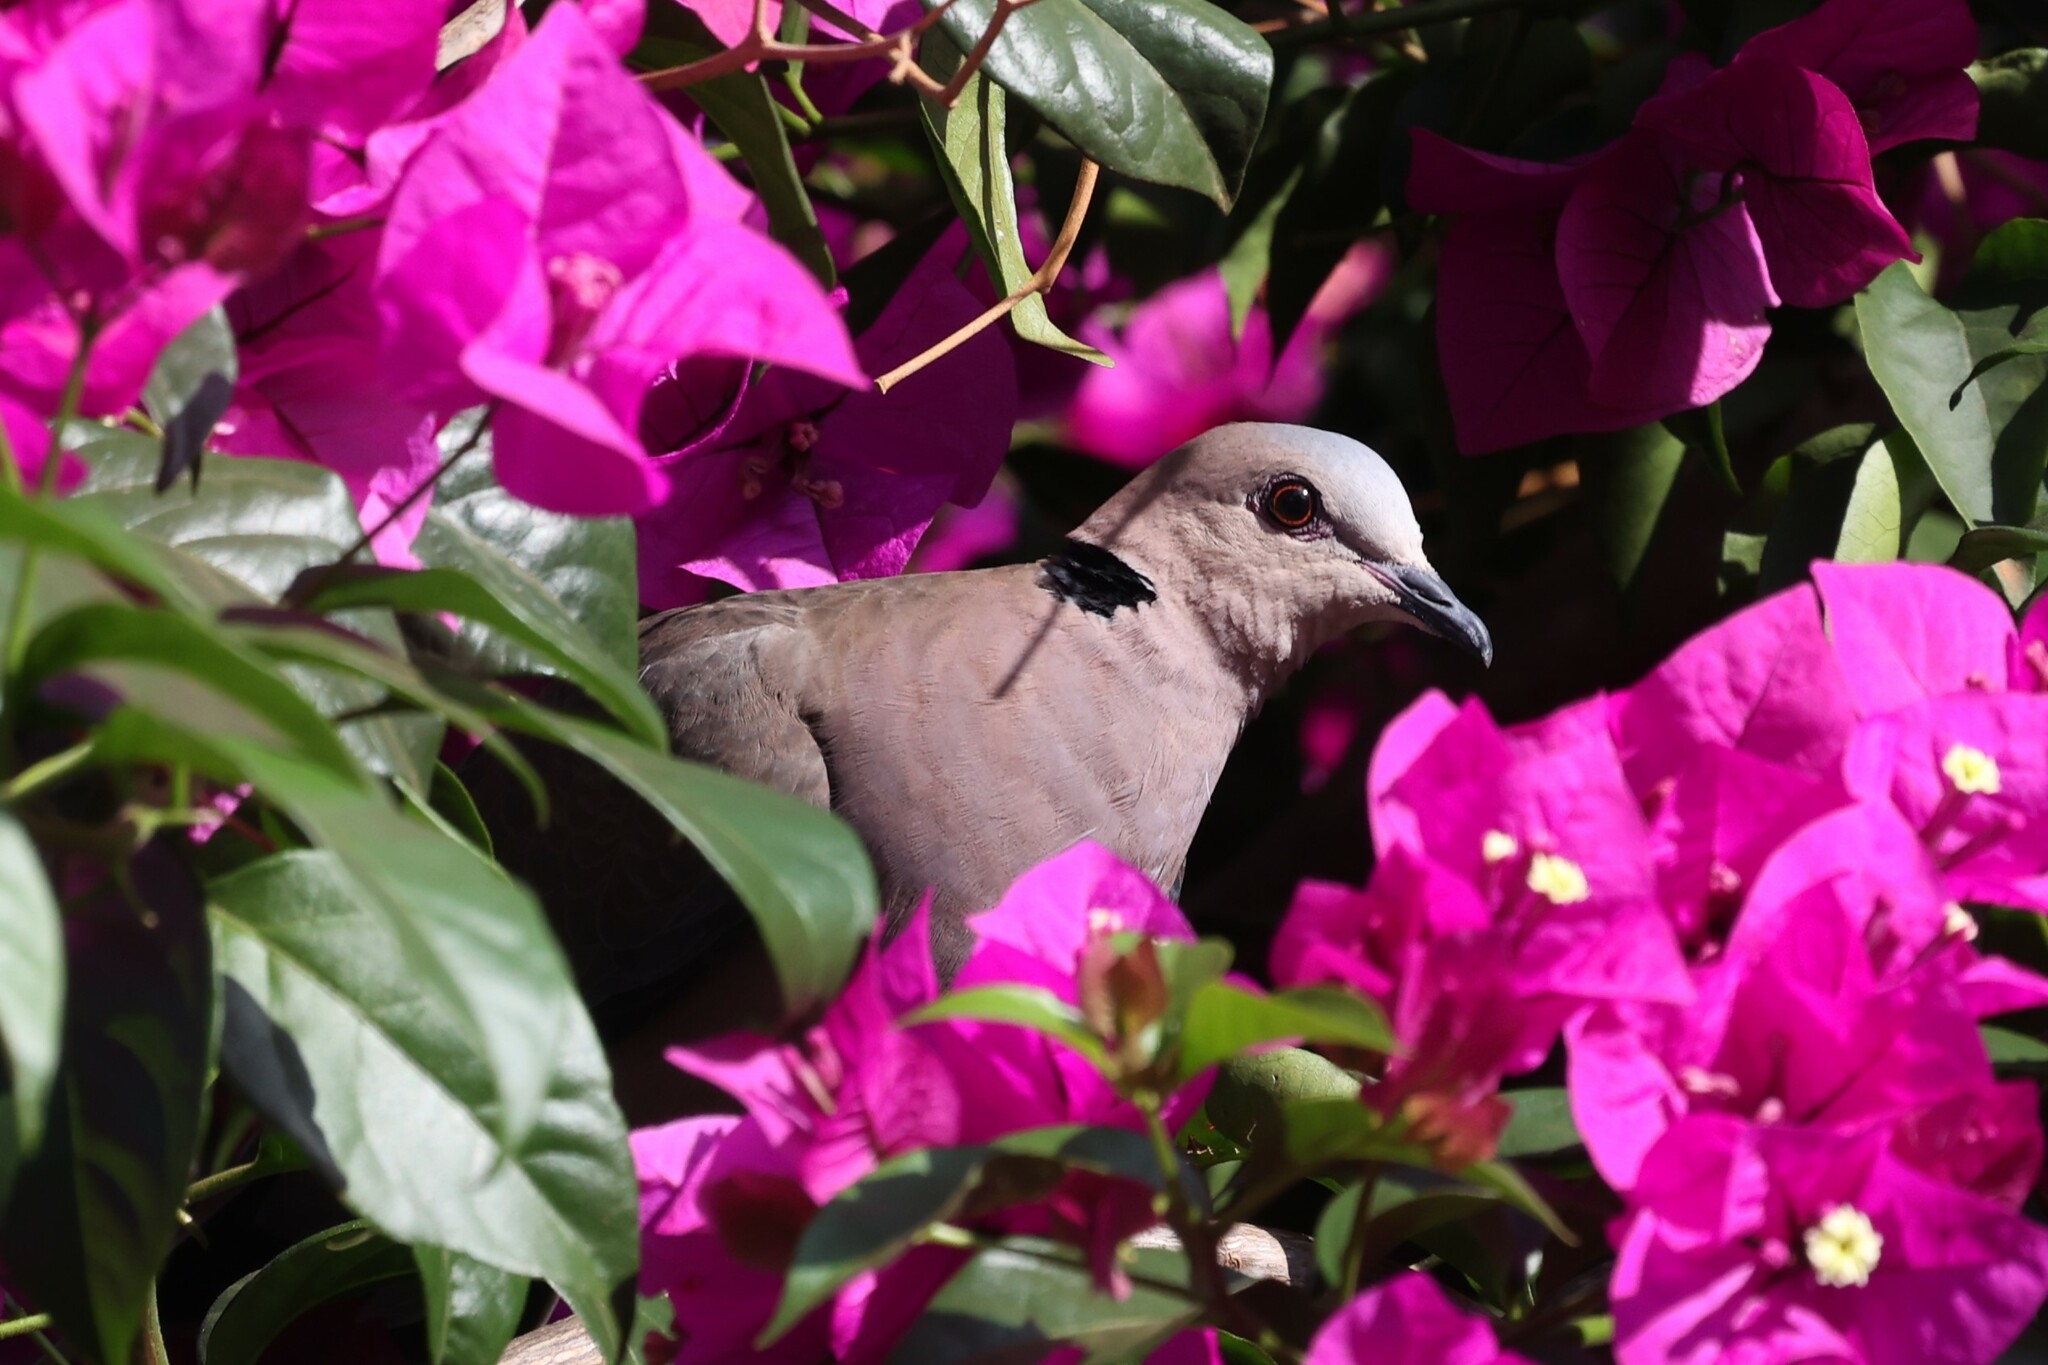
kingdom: Animalia
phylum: Chordata
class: Aves
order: Columbiformes
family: Columbidae
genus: Streptopelia
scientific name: Streptopelia semitorquata
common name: Red-eyed dove
